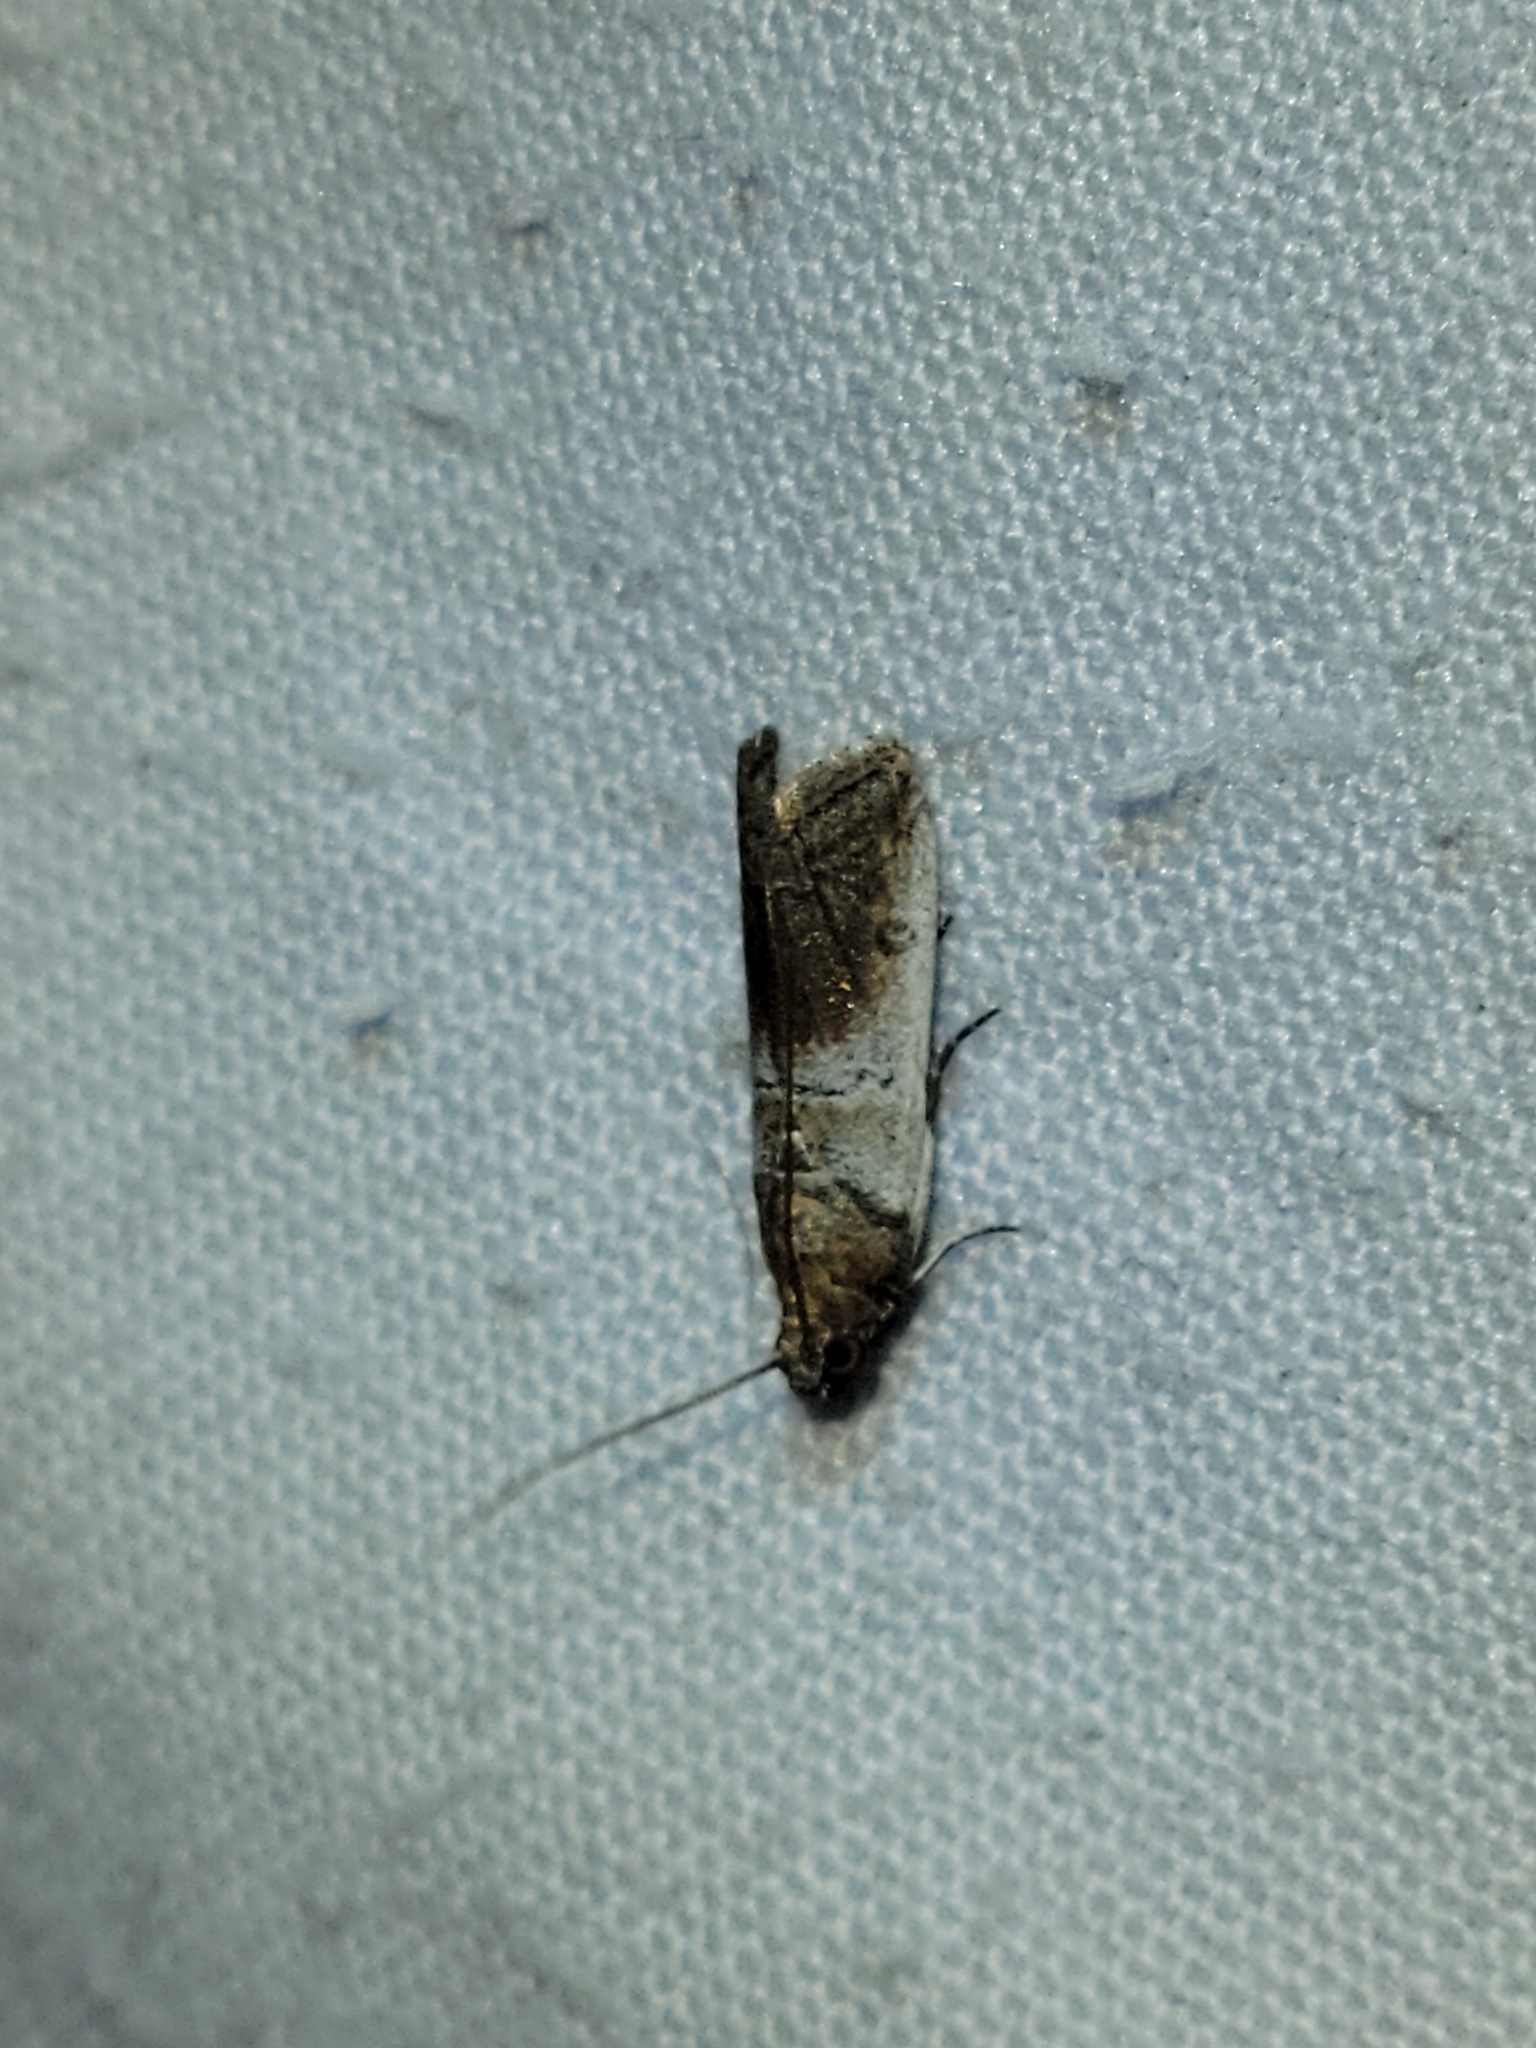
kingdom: Animalia
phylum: Arthropoda
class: Insecta
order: Lepidoptera
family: Pyralidae
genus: Chararica
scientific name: Chararica hystriculella
